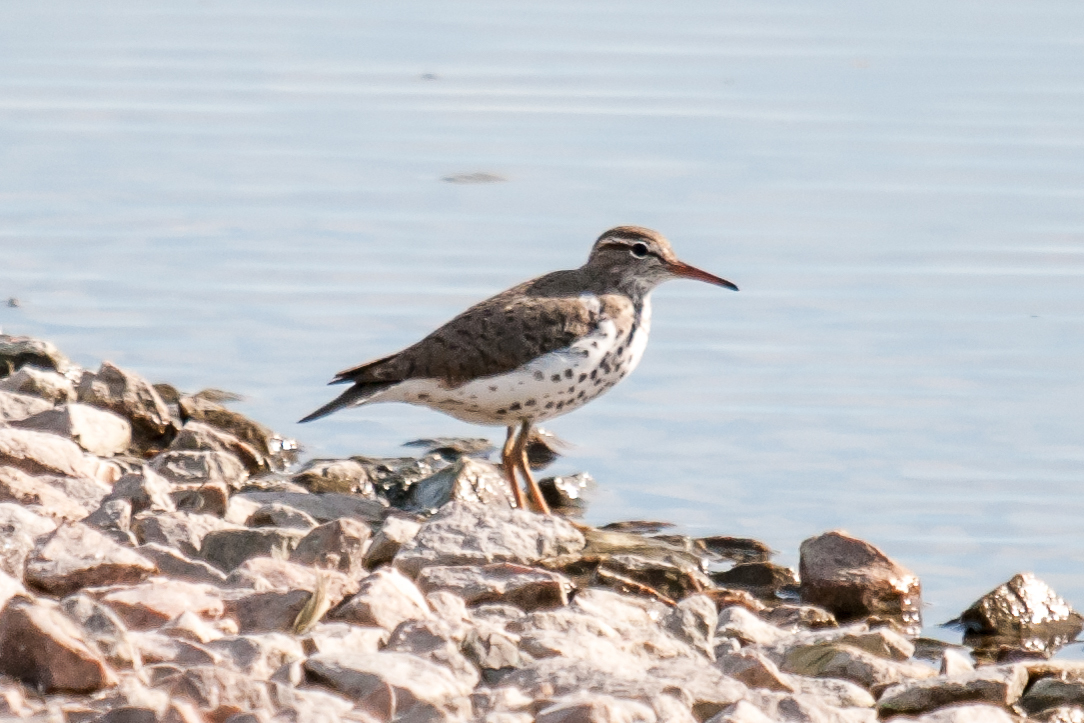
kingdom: Animalia
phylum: Chordata
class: Aves
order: Charadriiformes
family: Scolopacidae
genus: Actitis
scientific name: Actitis macularius
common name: Spotted sandpiper
